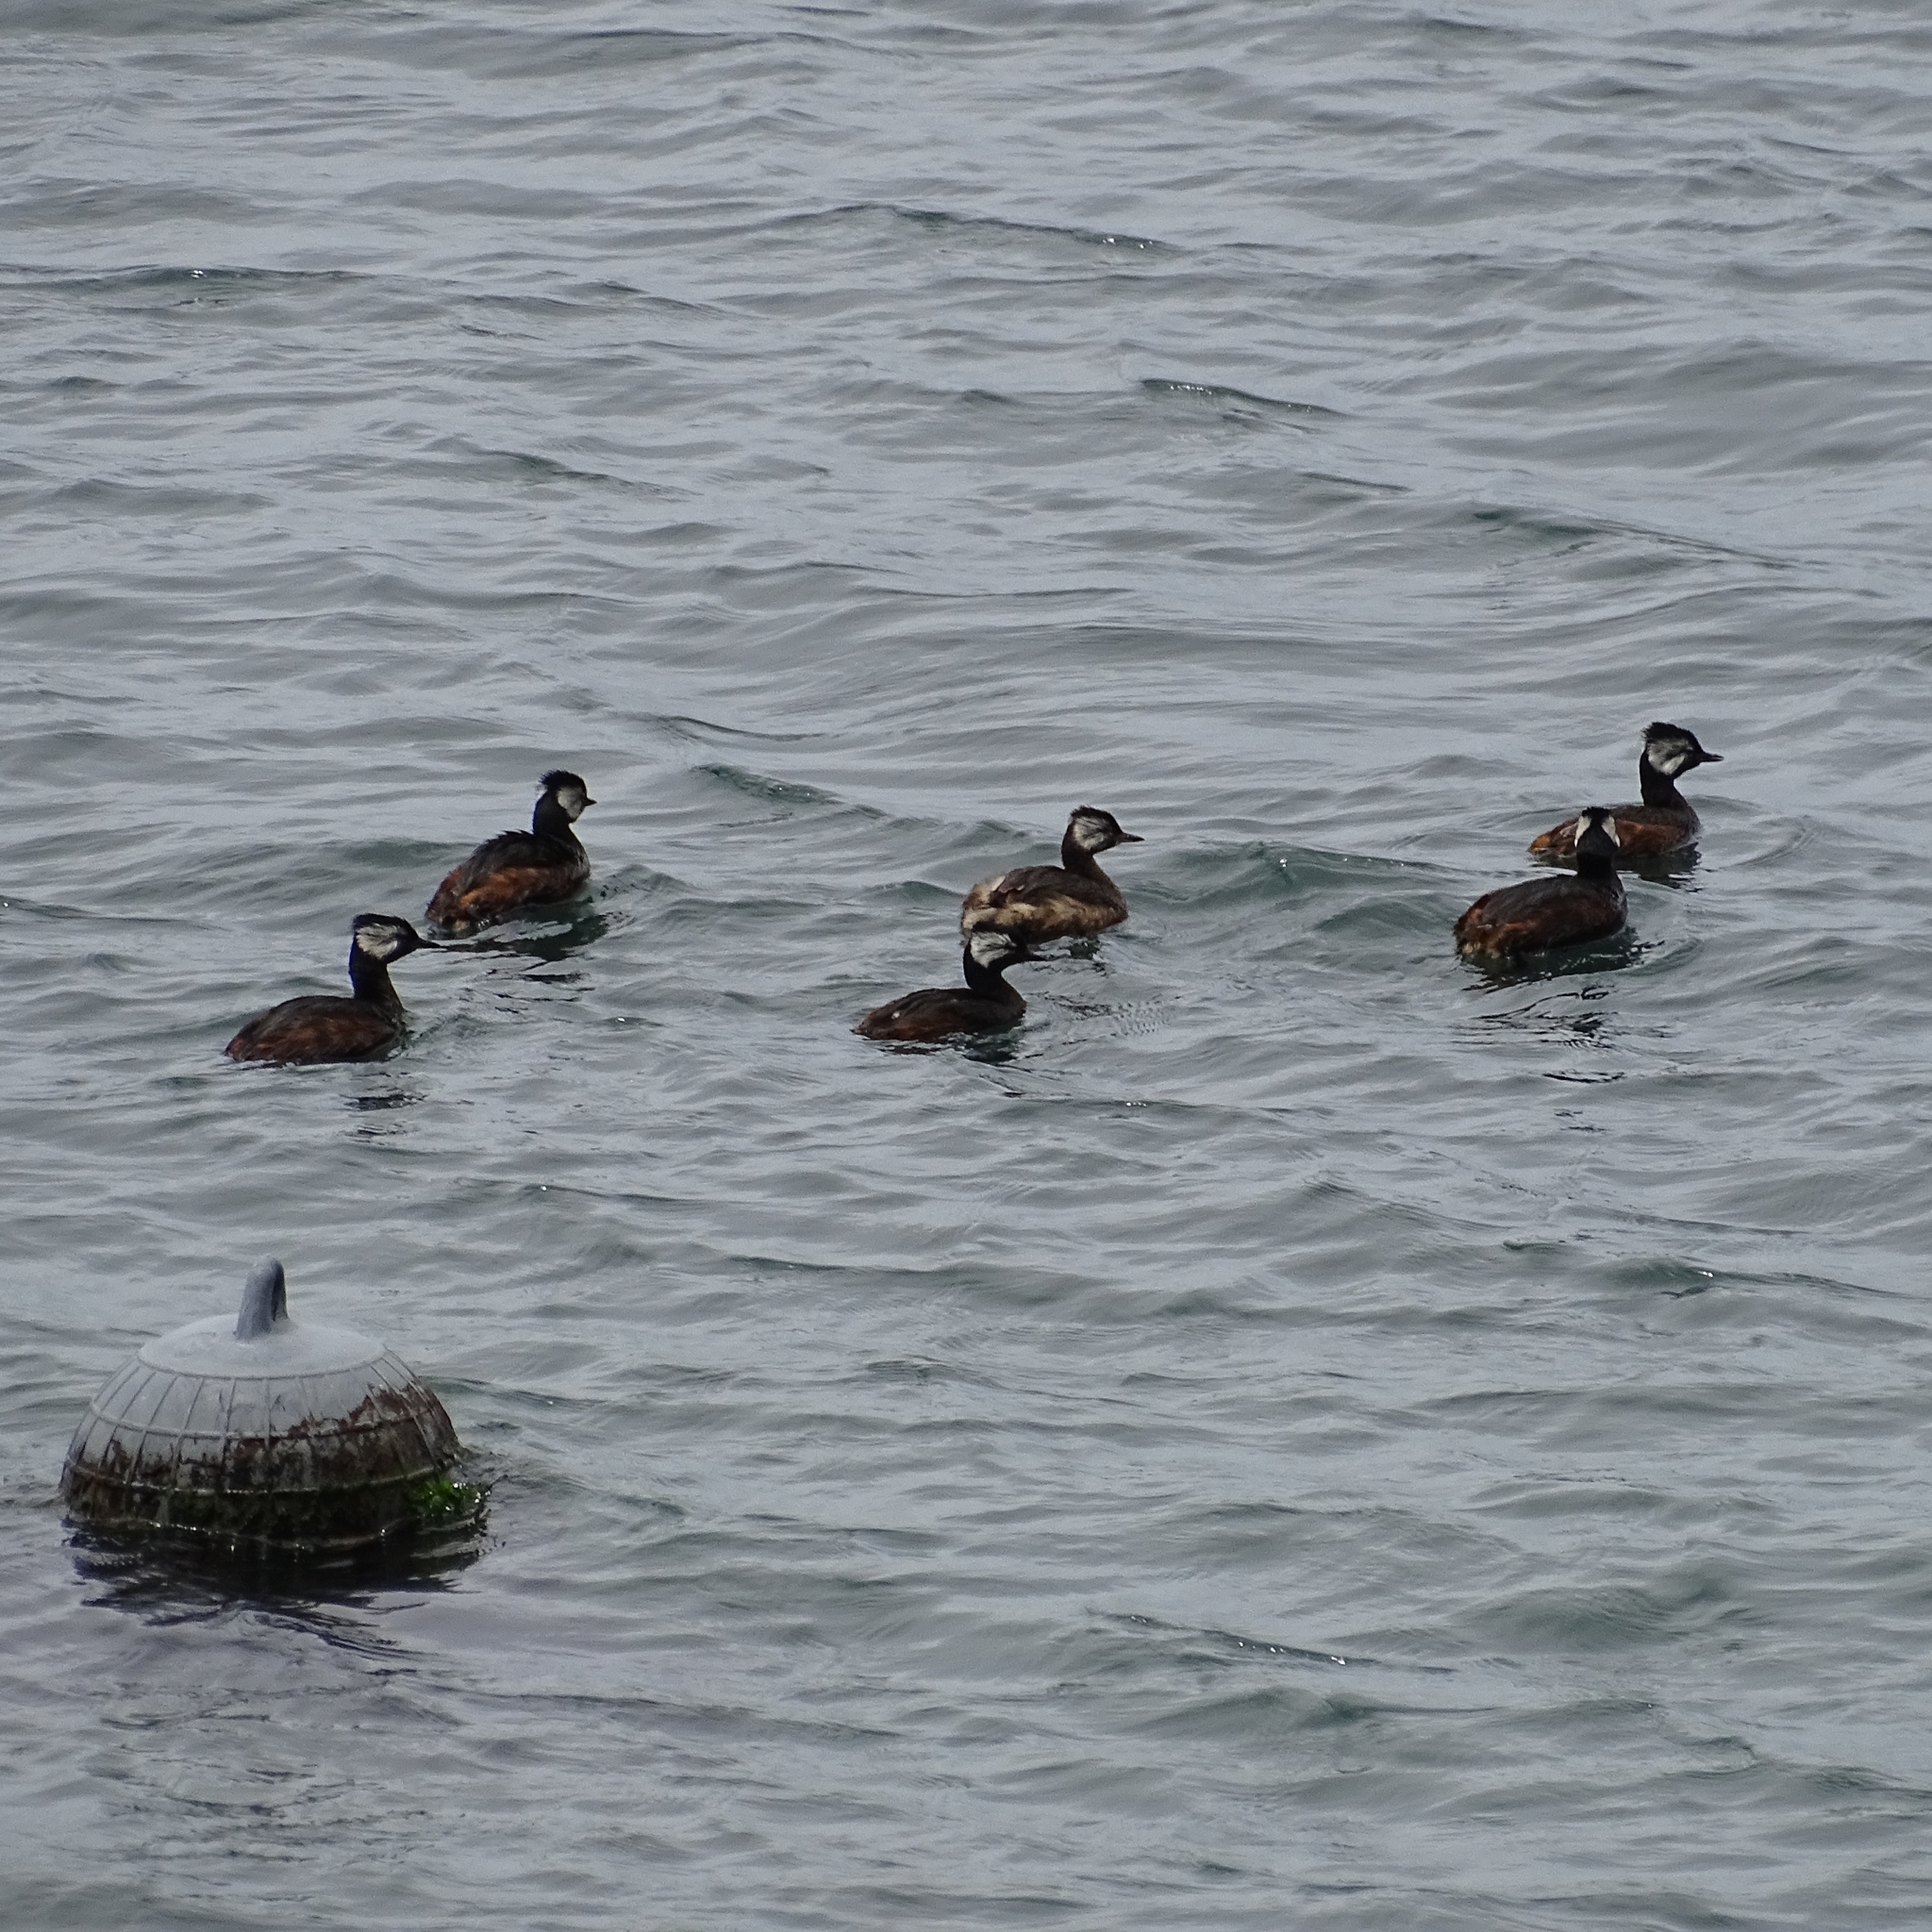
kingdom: Animalia
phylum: Chordata
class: Aves
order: Podicipediformes
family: Podicipedidae
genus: Rollandia
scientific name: Rollandia rolland
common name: White-tufted grebe
